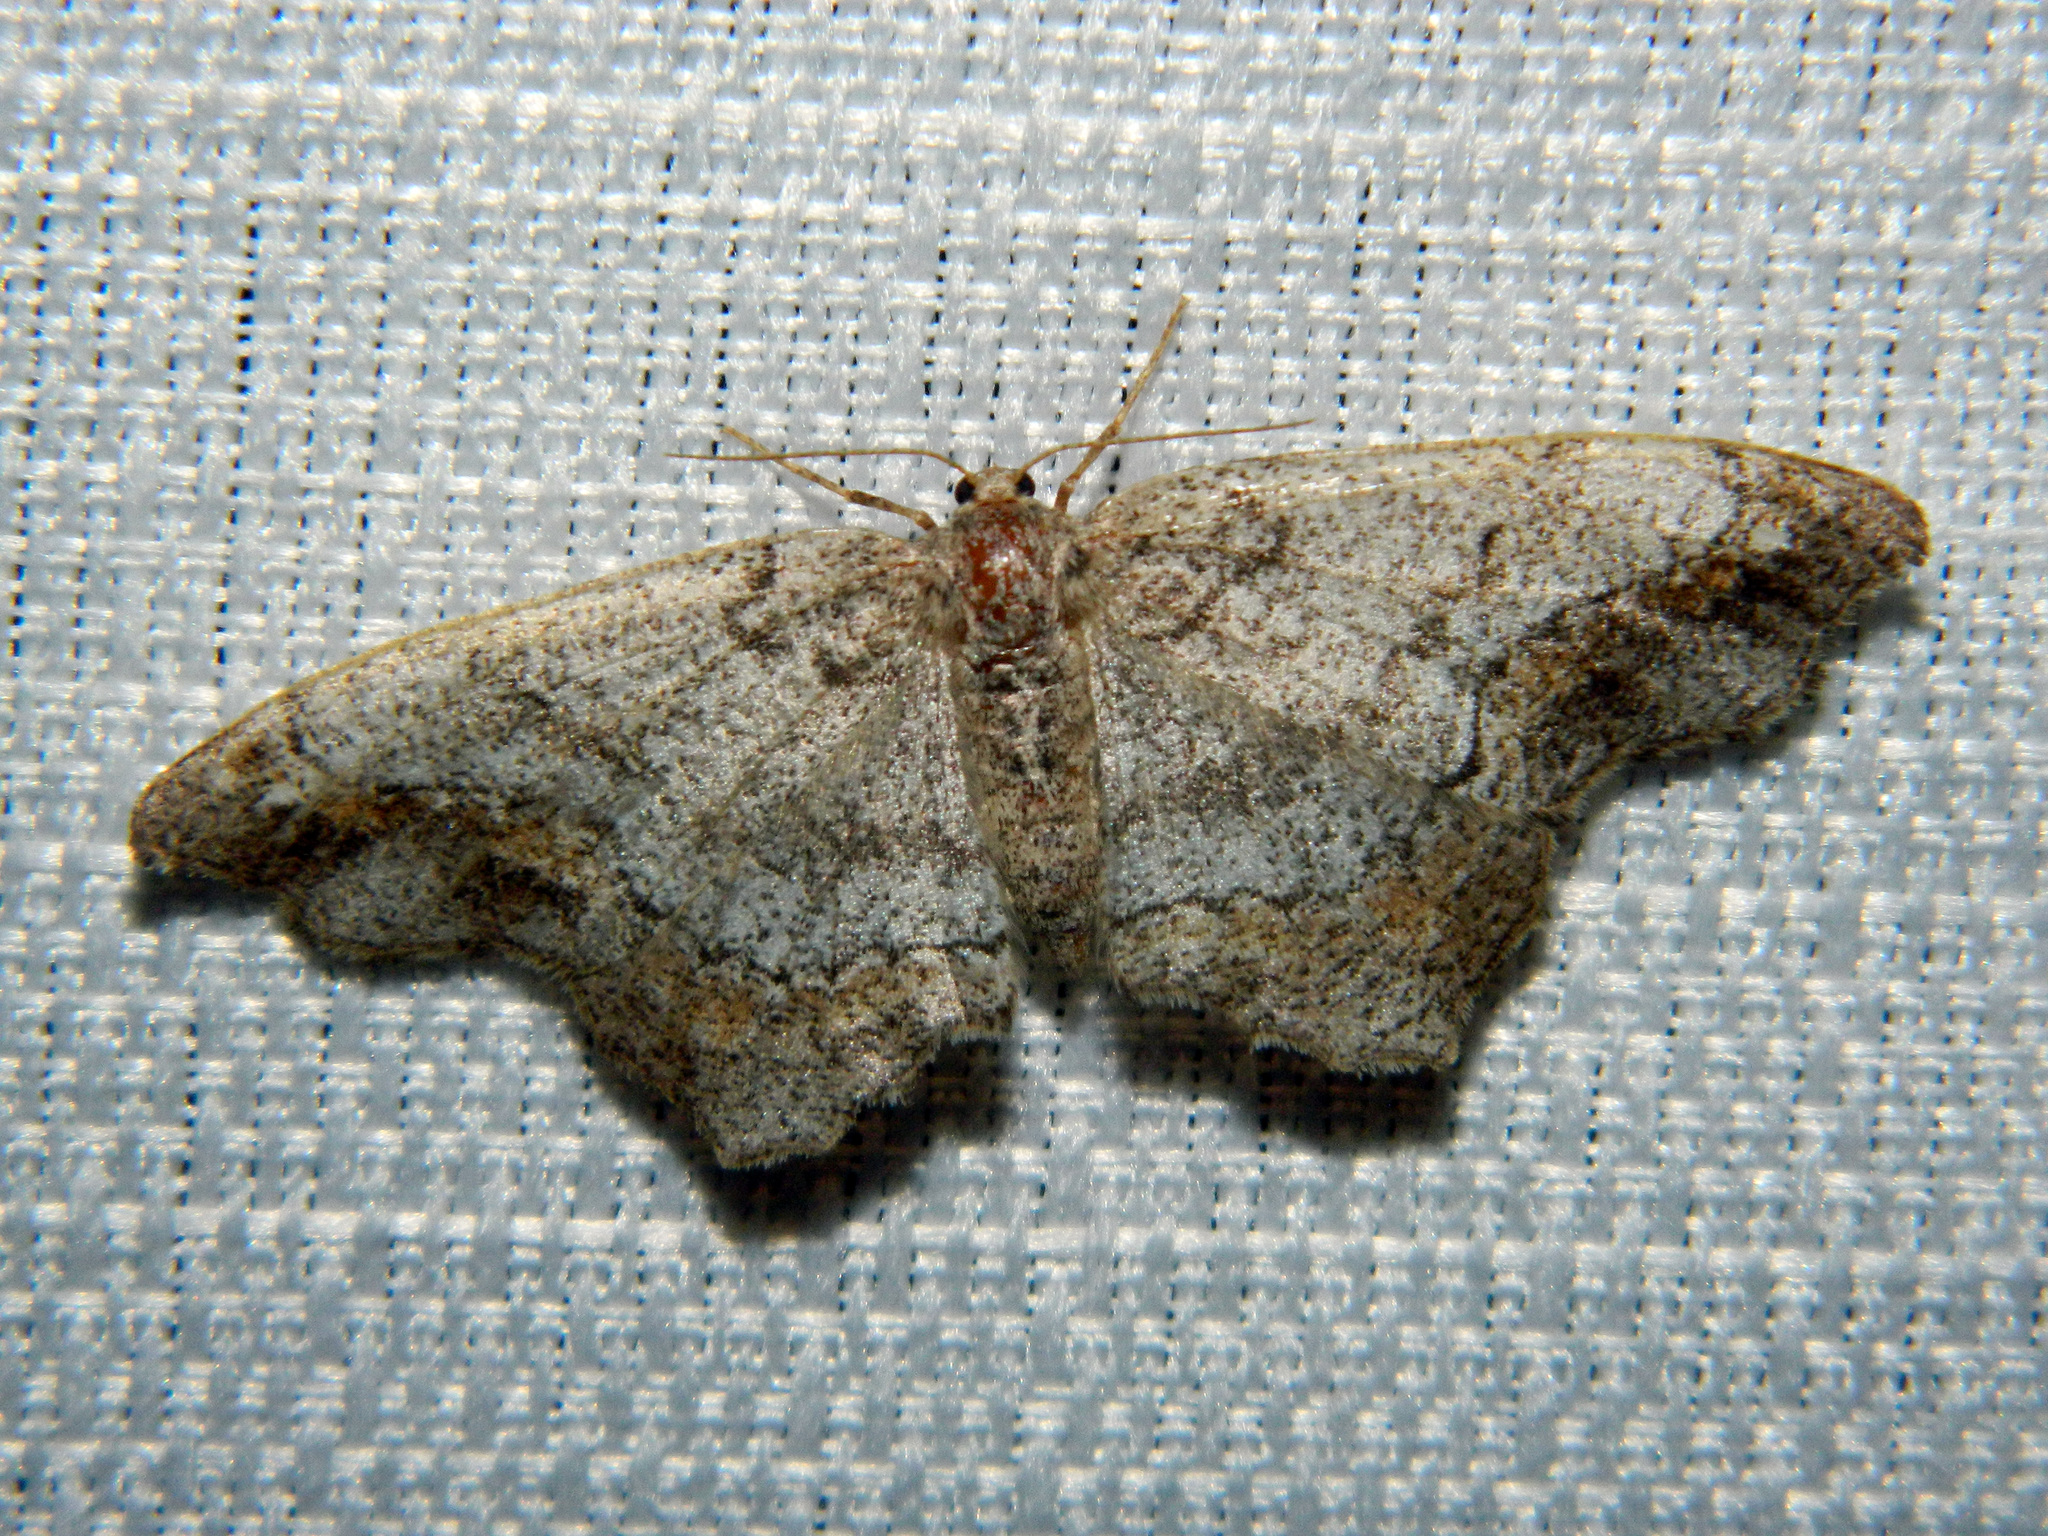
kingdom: Animalia
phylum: Arthropoda
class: Insecta
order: Lepidoptera
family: Geometridae
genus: Hypagyrtis
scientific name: Hypagyrtis unipunctata
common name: One-spotted variant
